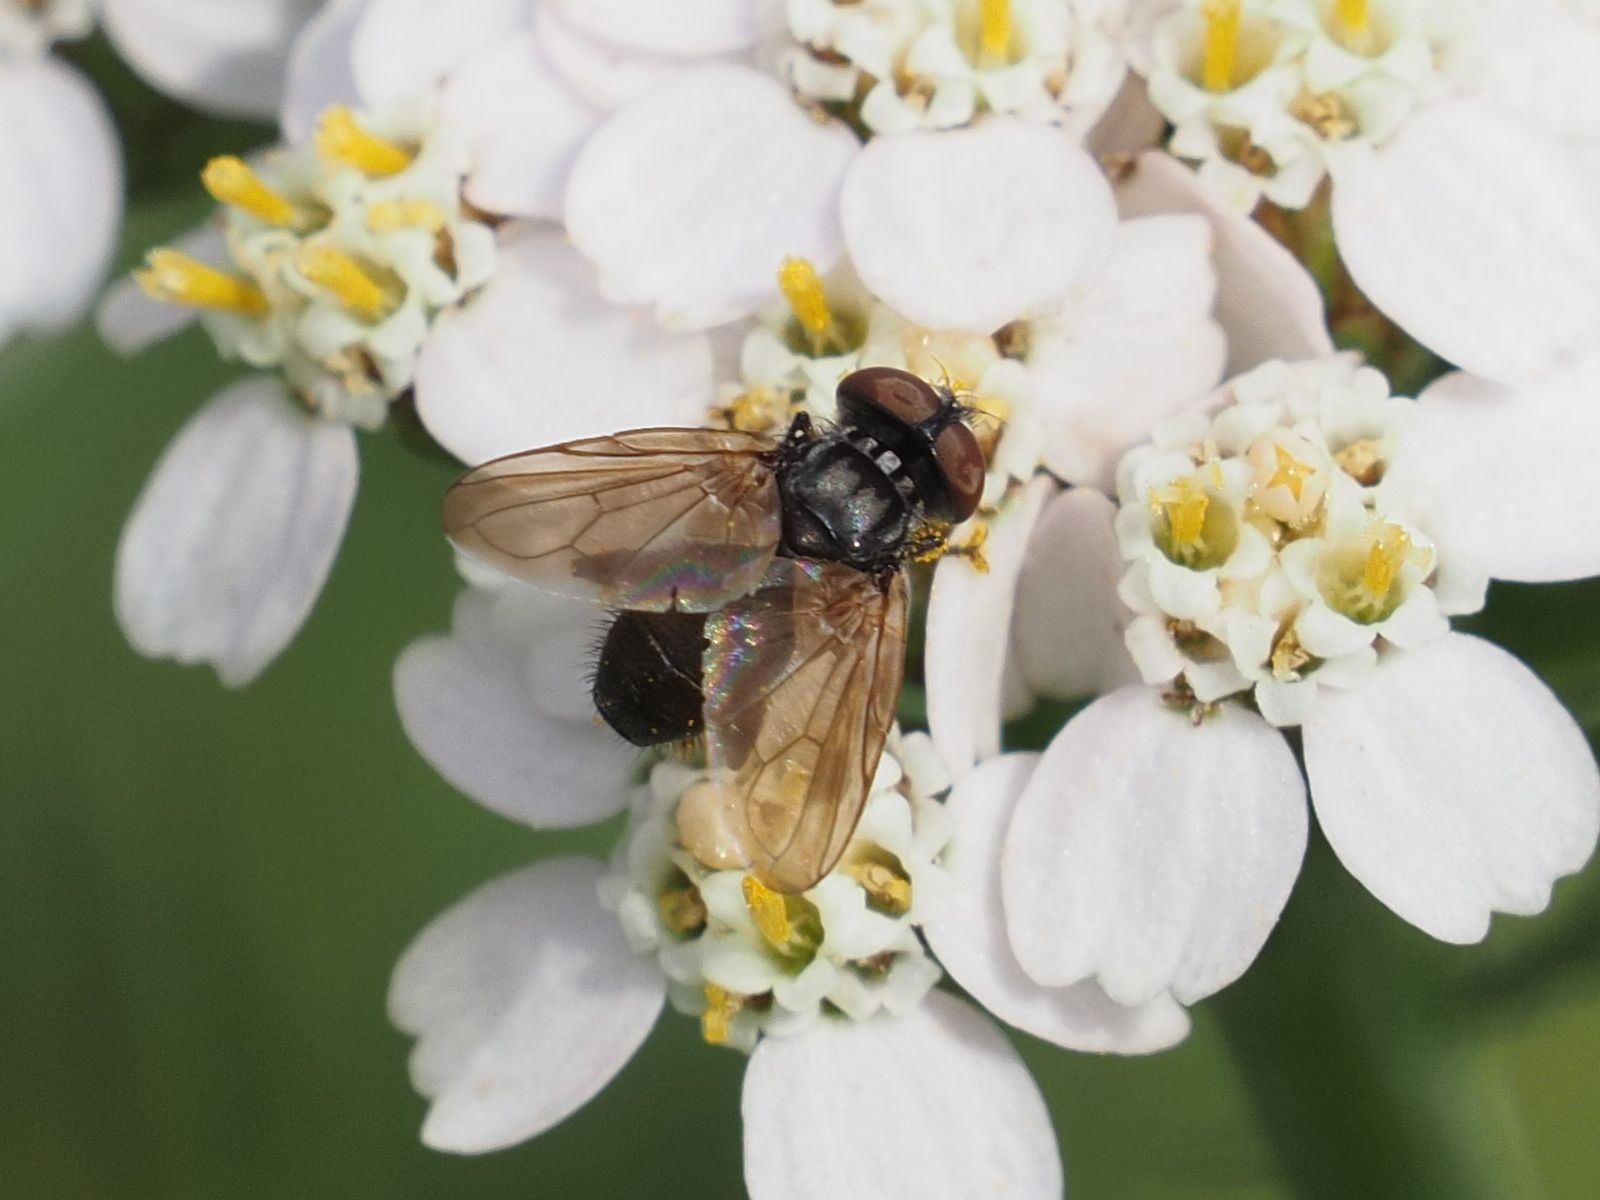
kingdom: Animalia
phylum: Arthropoda
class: Insecta
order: Diptera
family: Tachinidae
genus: Phasia
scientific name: Phasia obesa
